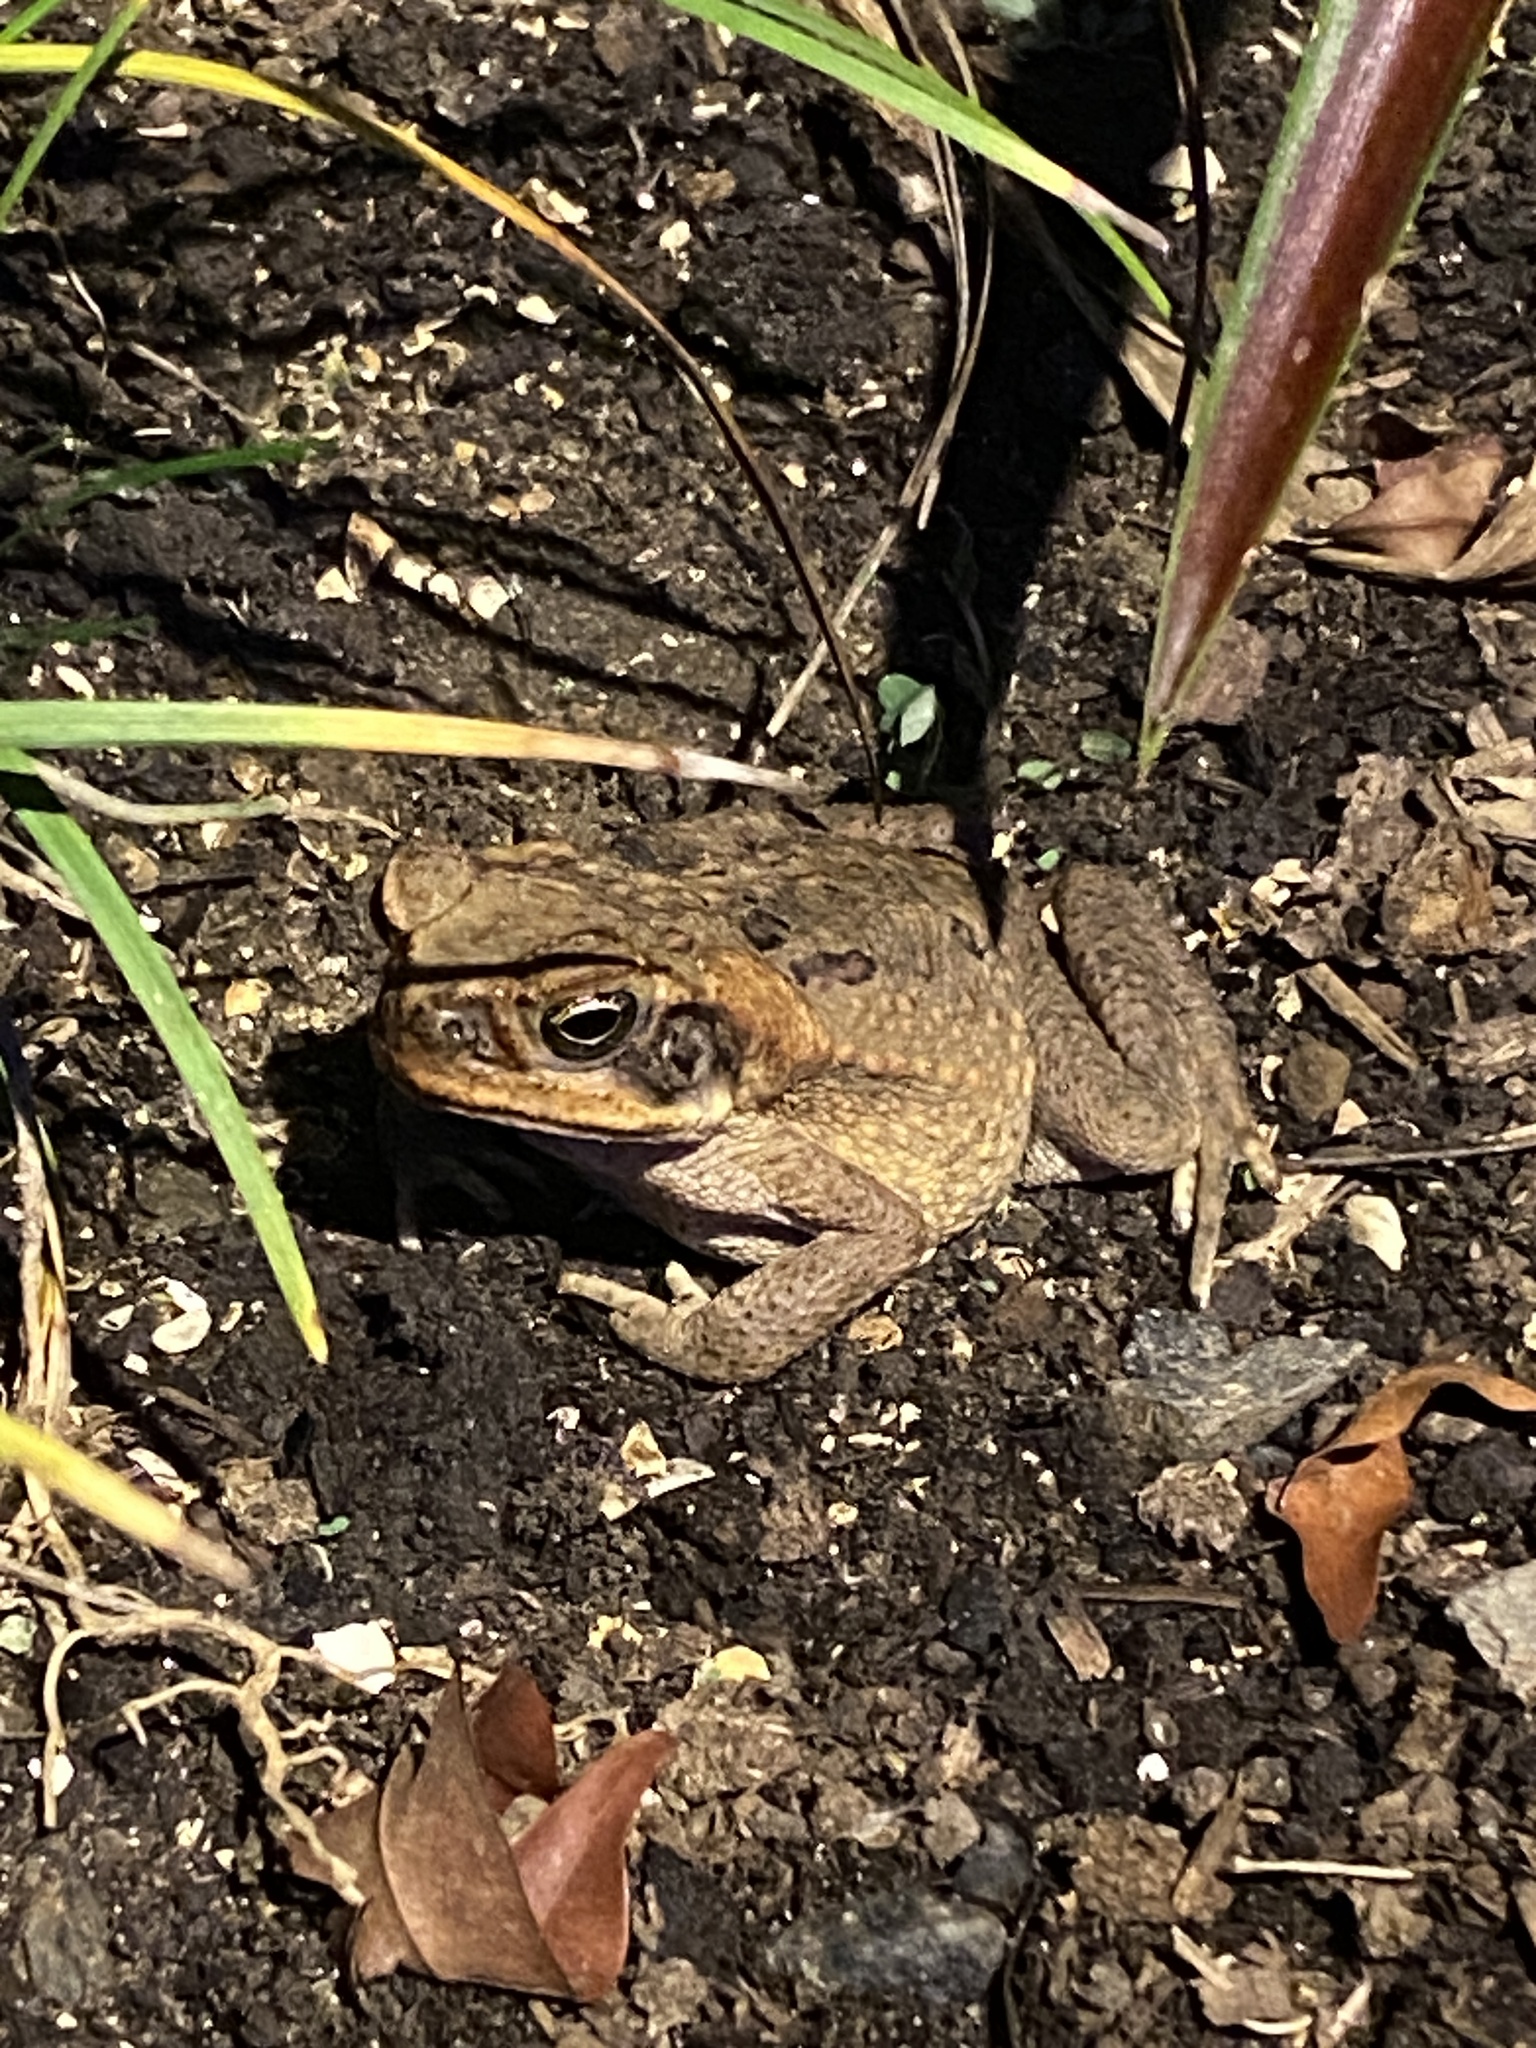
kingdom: Animalia
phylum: Chordata
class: Amphibia
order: Anura
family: Bufonidae
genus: Rhinella
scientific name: Rhinella marina
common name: Cane toad
